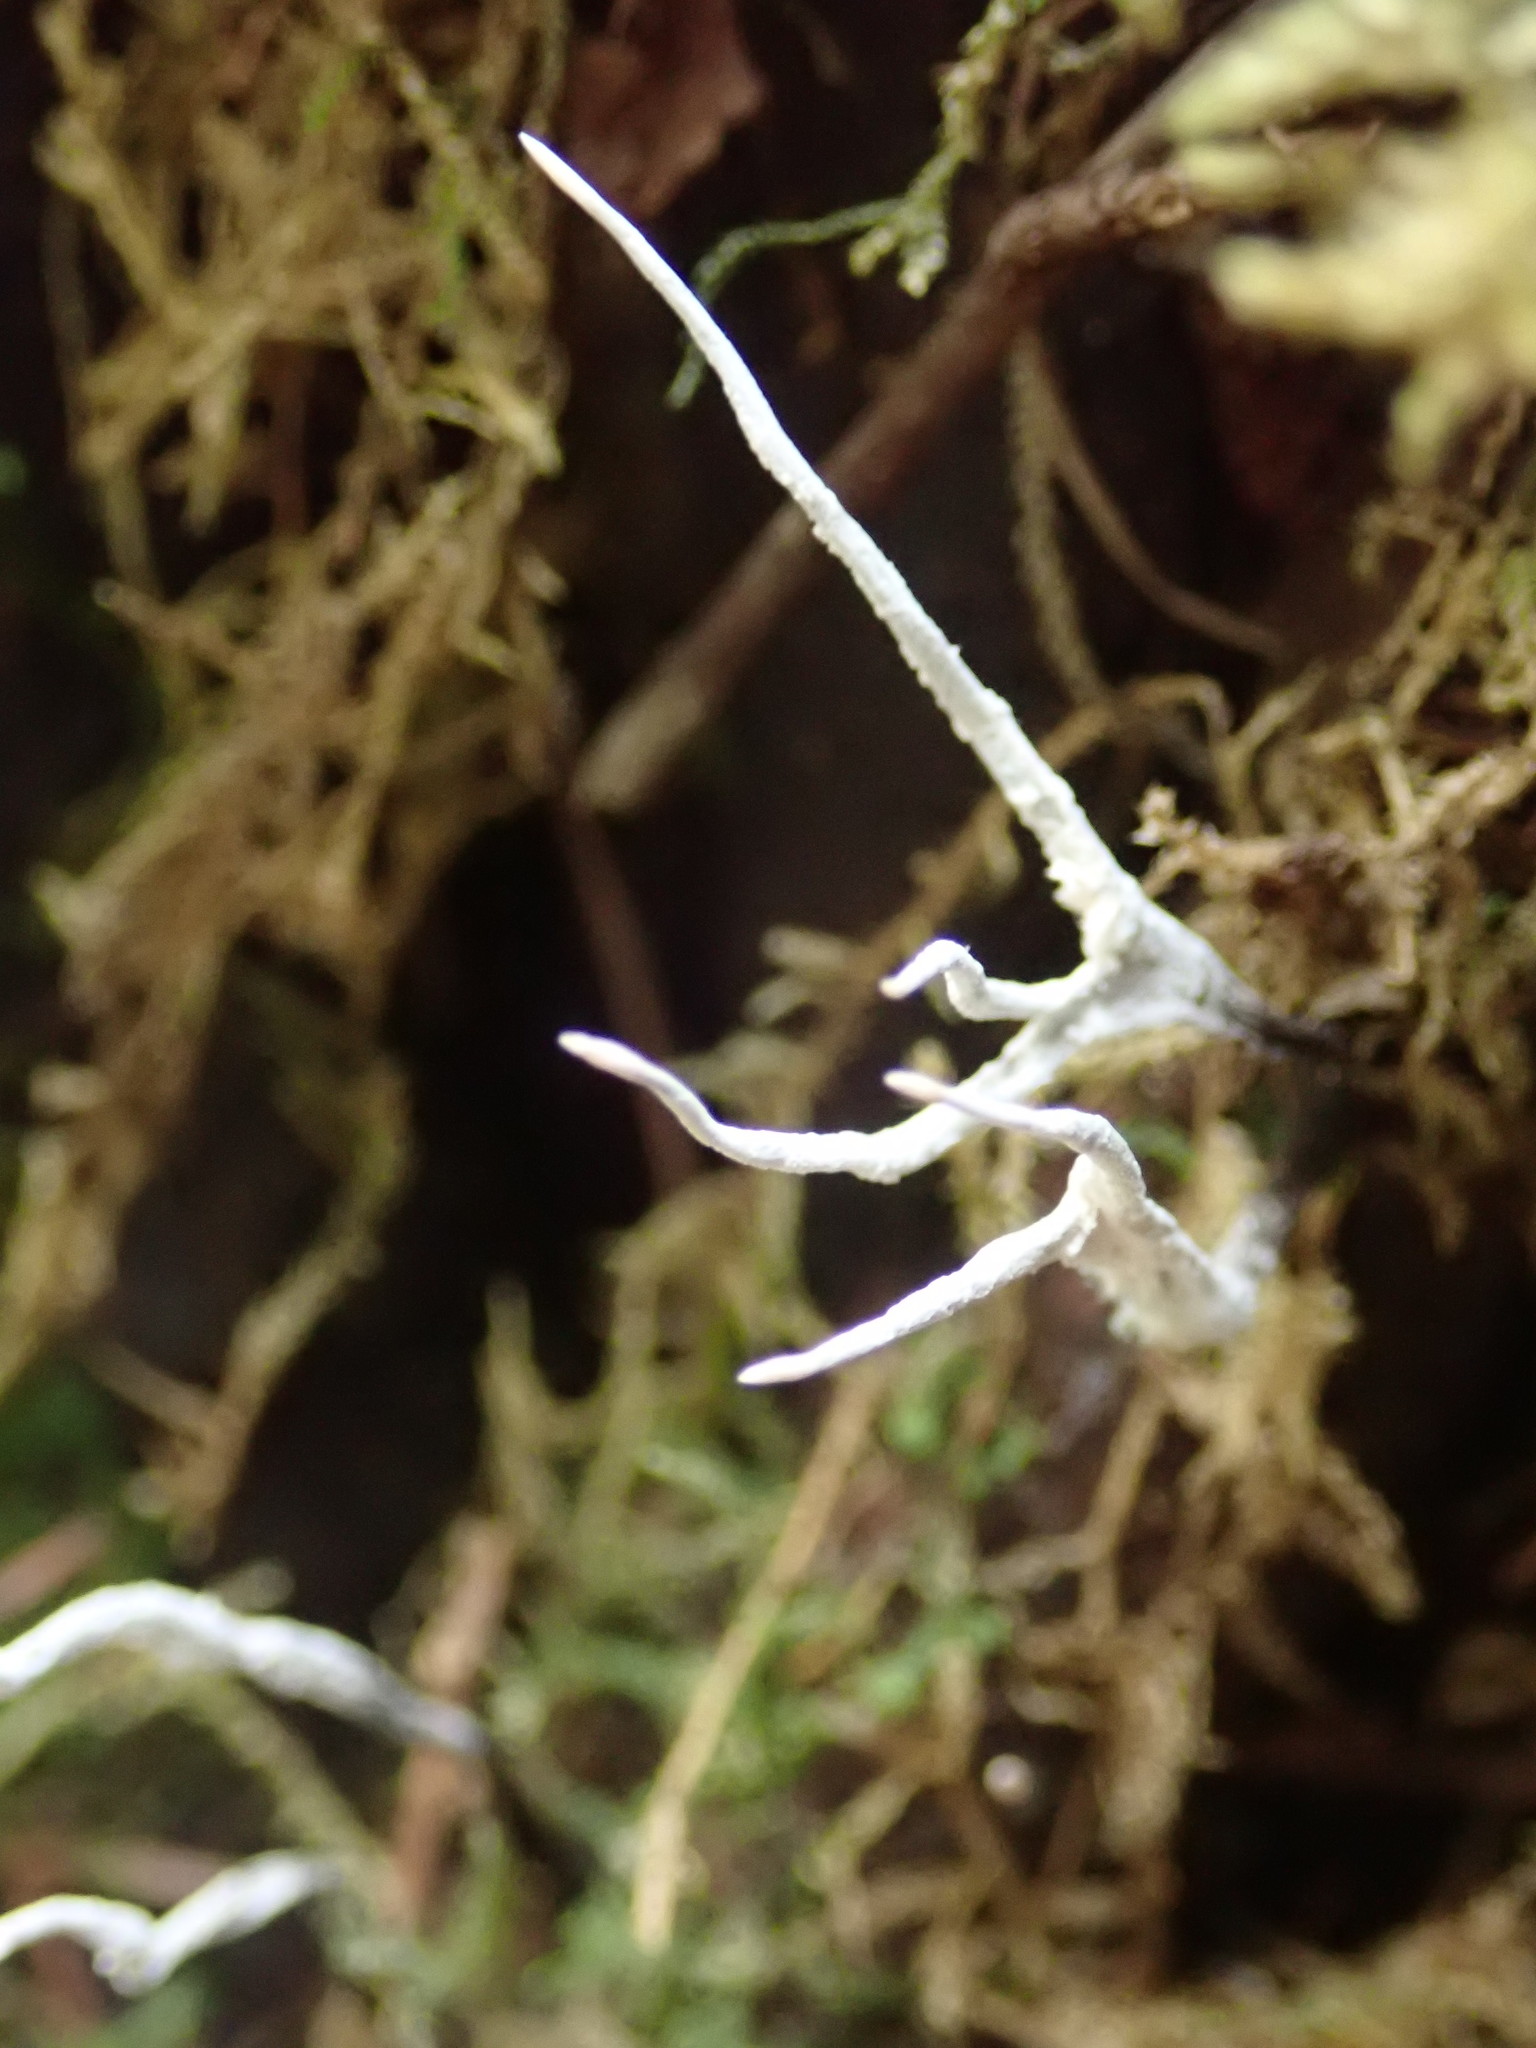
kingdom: Fungi
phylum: Ascomycota
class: Sordariomycetes
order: Xylariales
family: Xylariaceae
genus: Xylaria
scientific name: Xylaria hypoxylon
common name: Candle-snuff fungus
